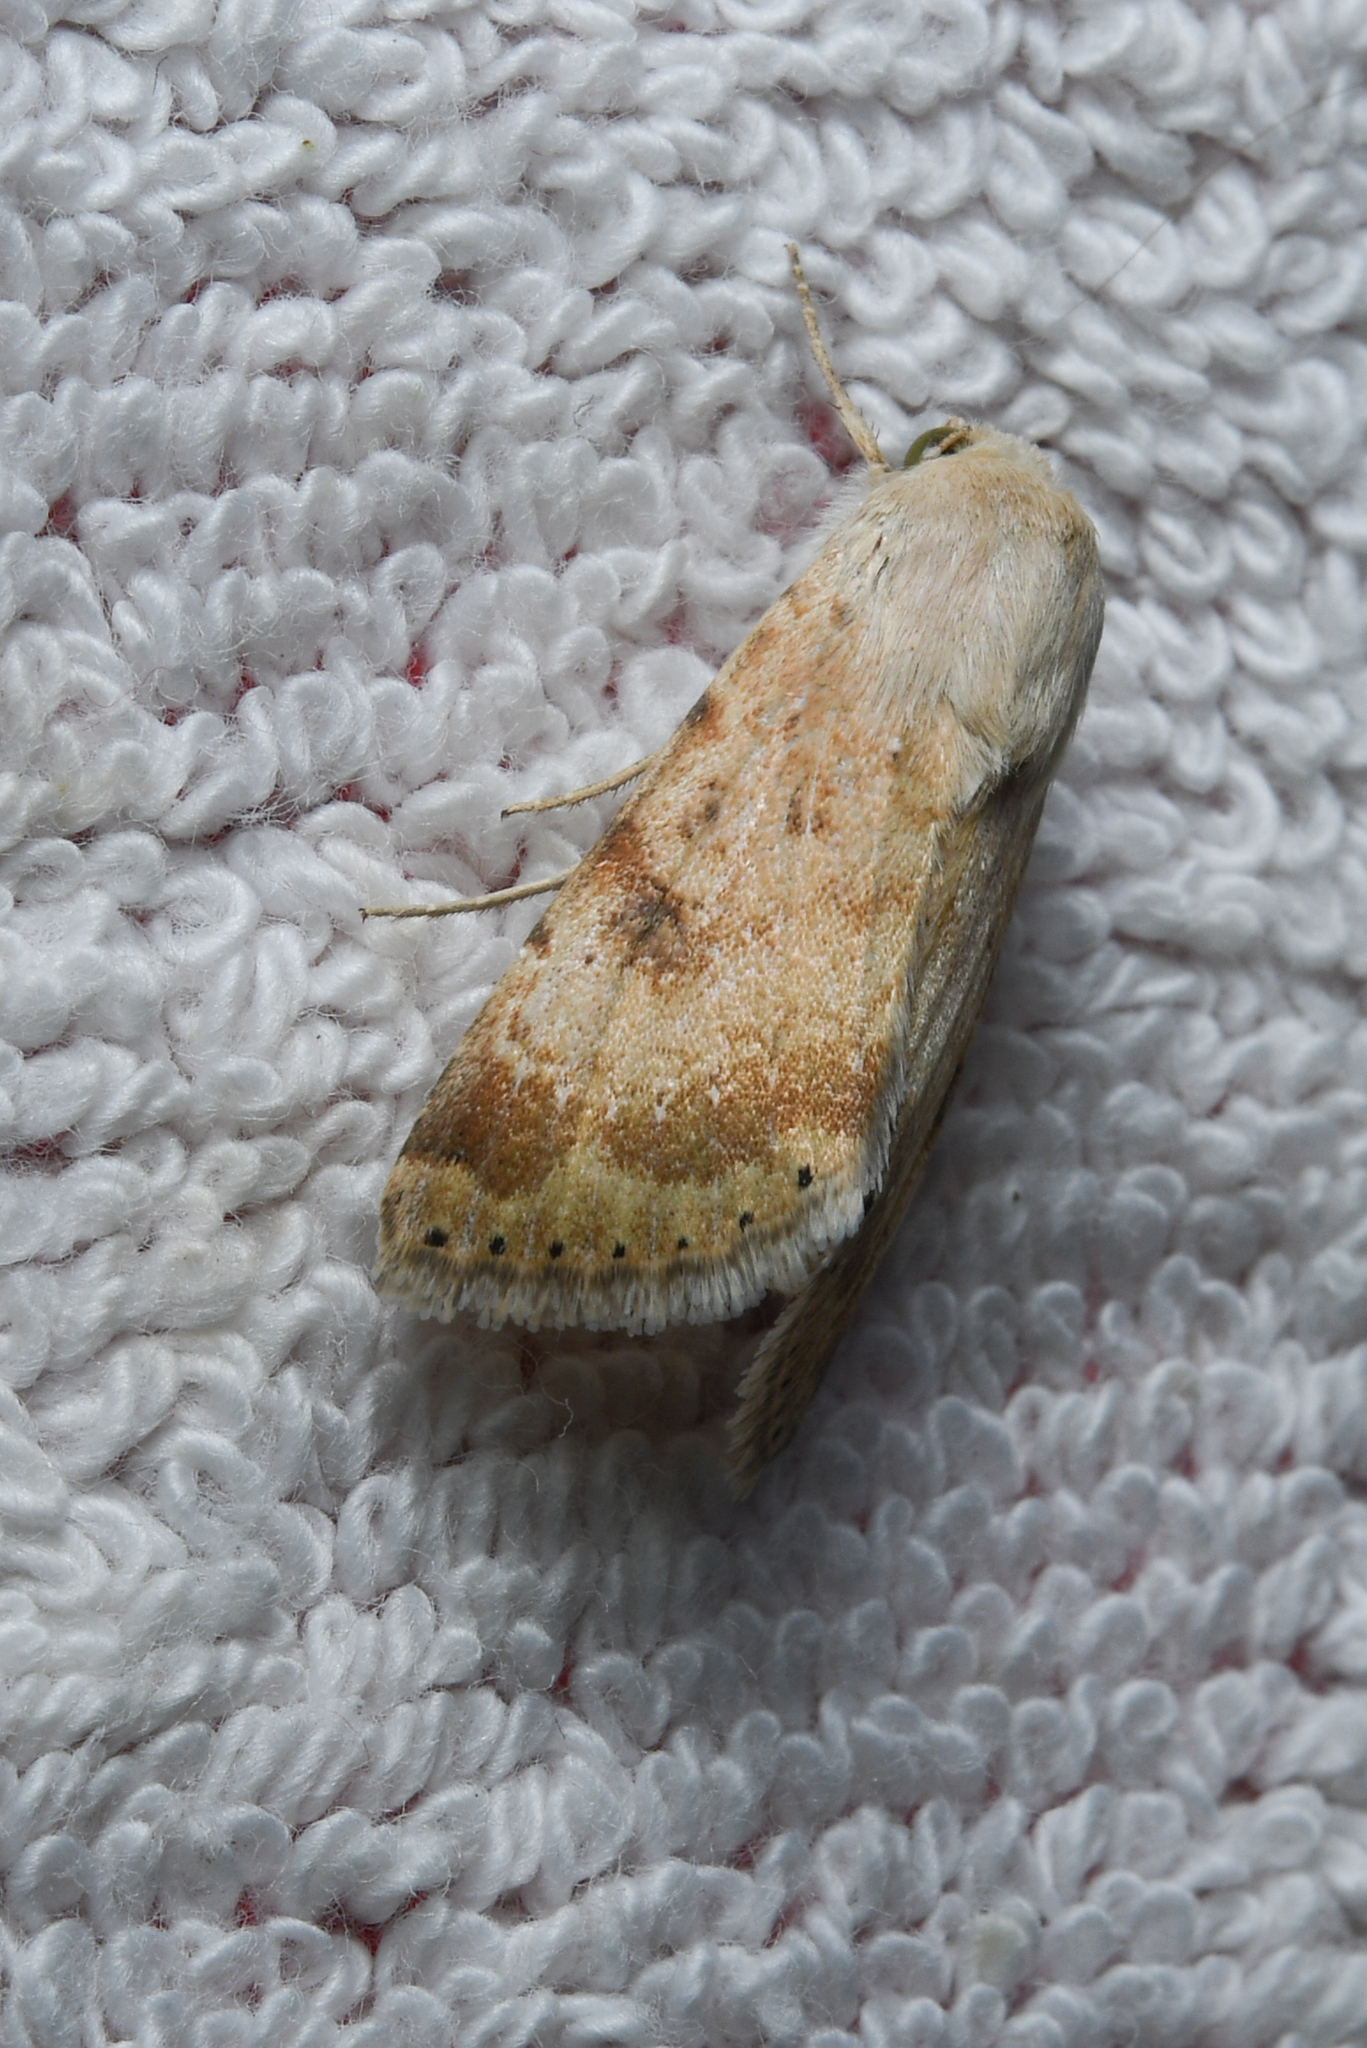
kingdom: Animalia
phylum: Arthropoda
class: Insecta
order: Lepidoptera
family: Noctuidae
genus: Heliothis
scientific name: Heliothis nubigera
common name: Eastern bordered straw
